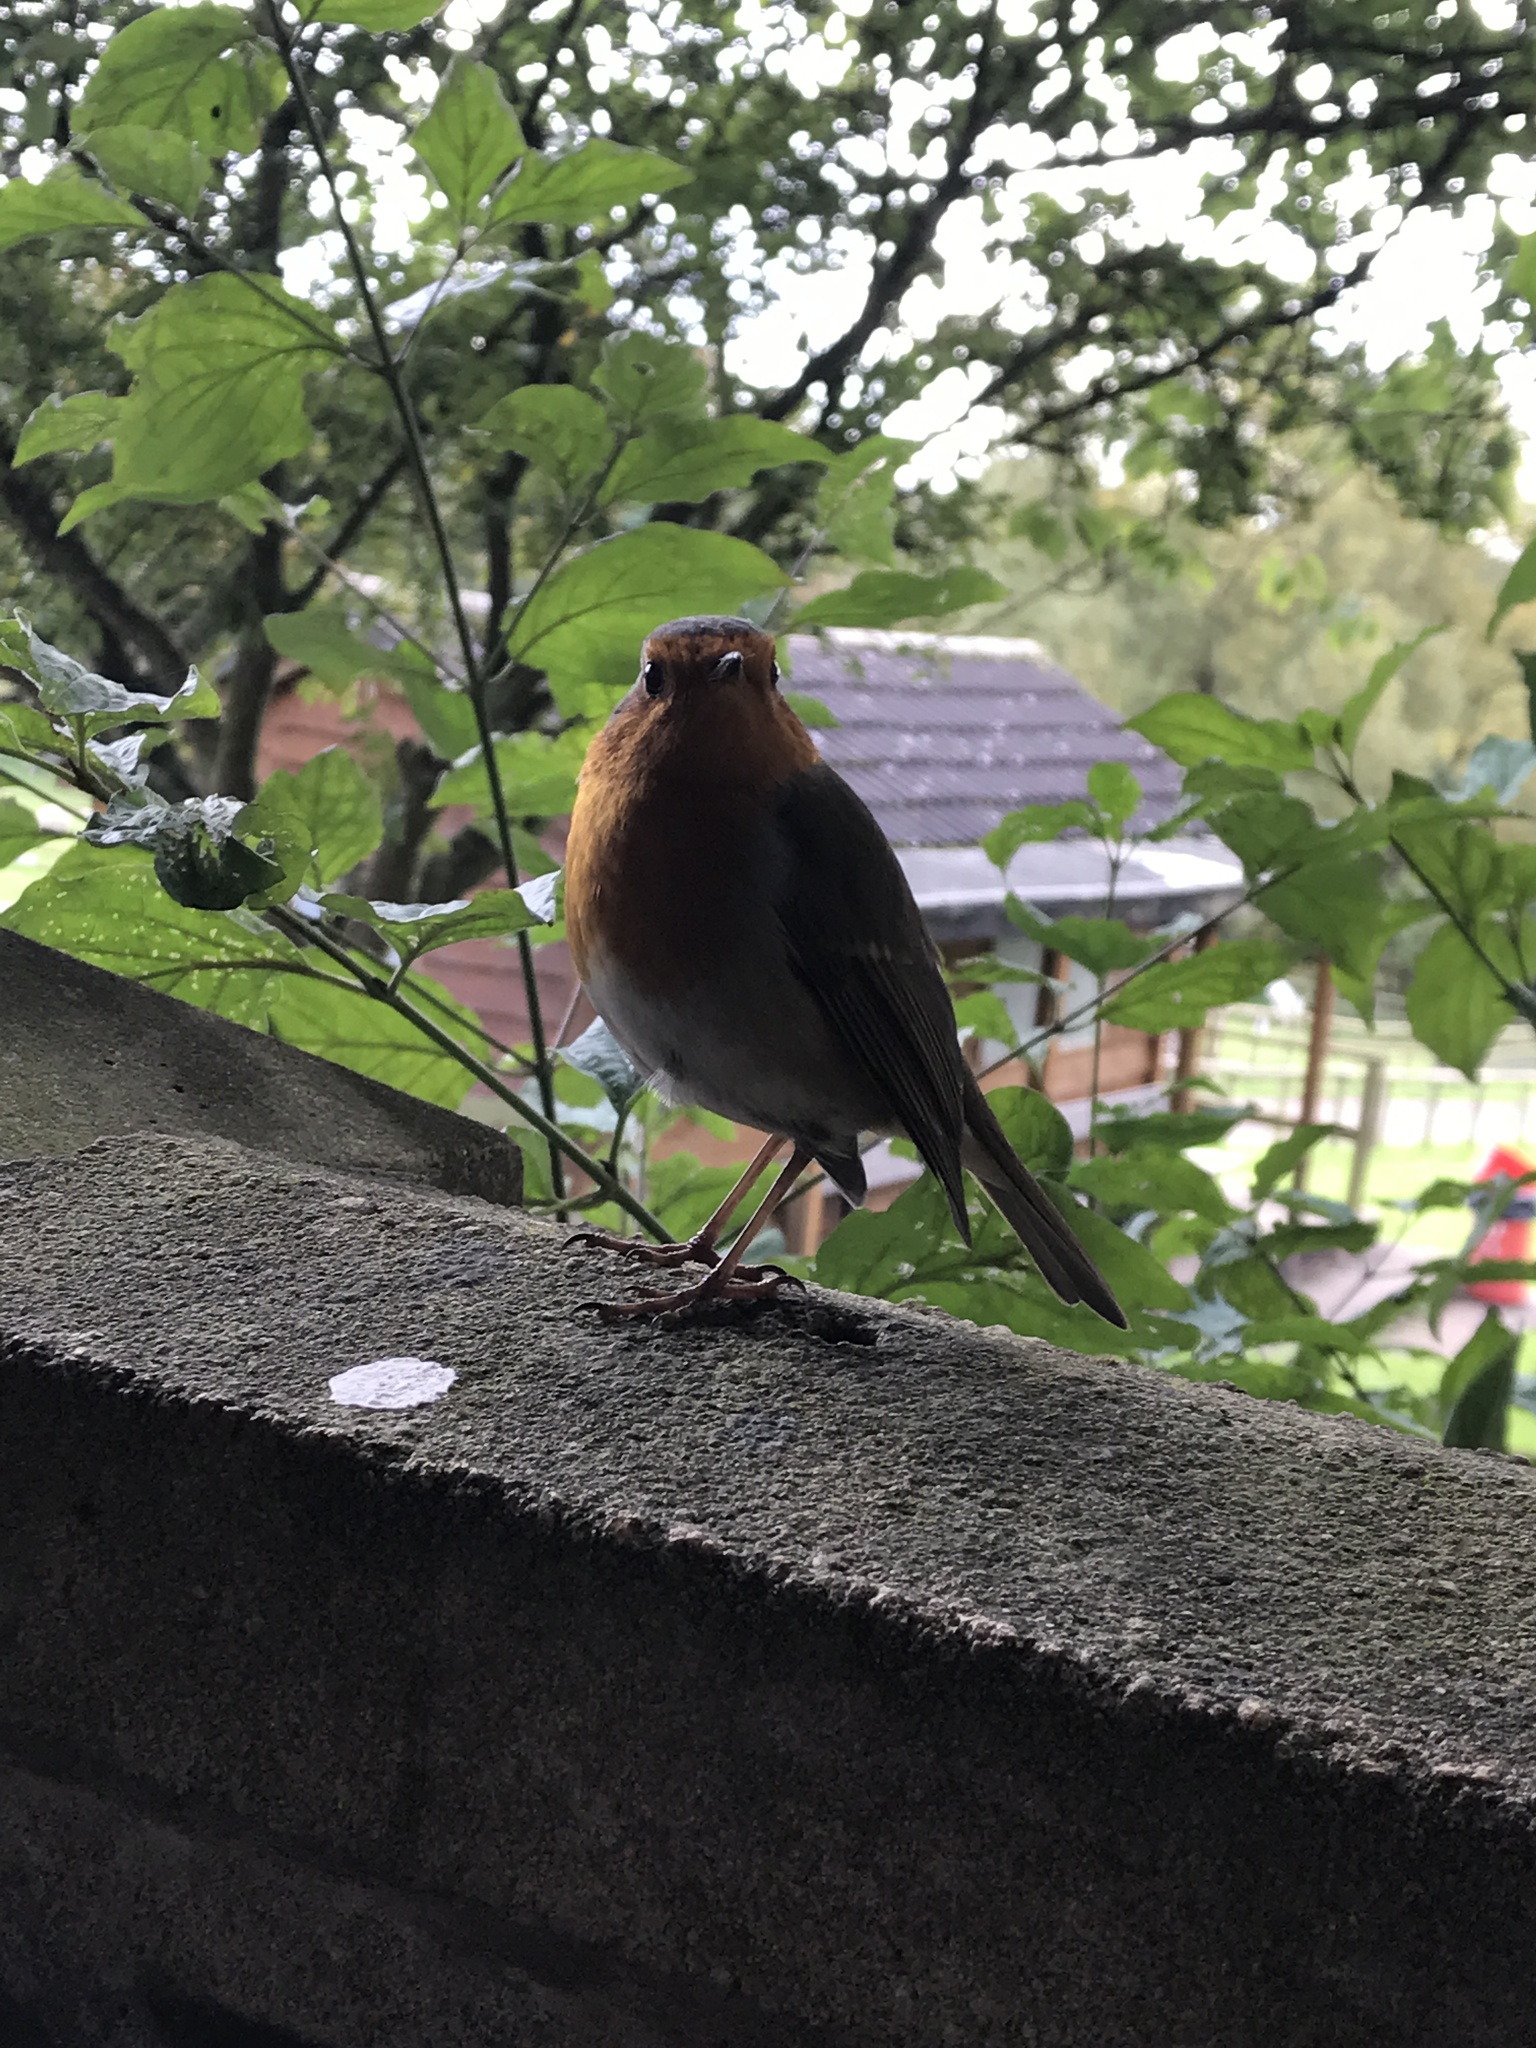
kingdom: Animalia
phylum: Chordata
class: Aves
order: Passeriformes
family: Muscicapidae
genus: Erithacus
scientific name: Erithacus rubecula
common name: European robin
